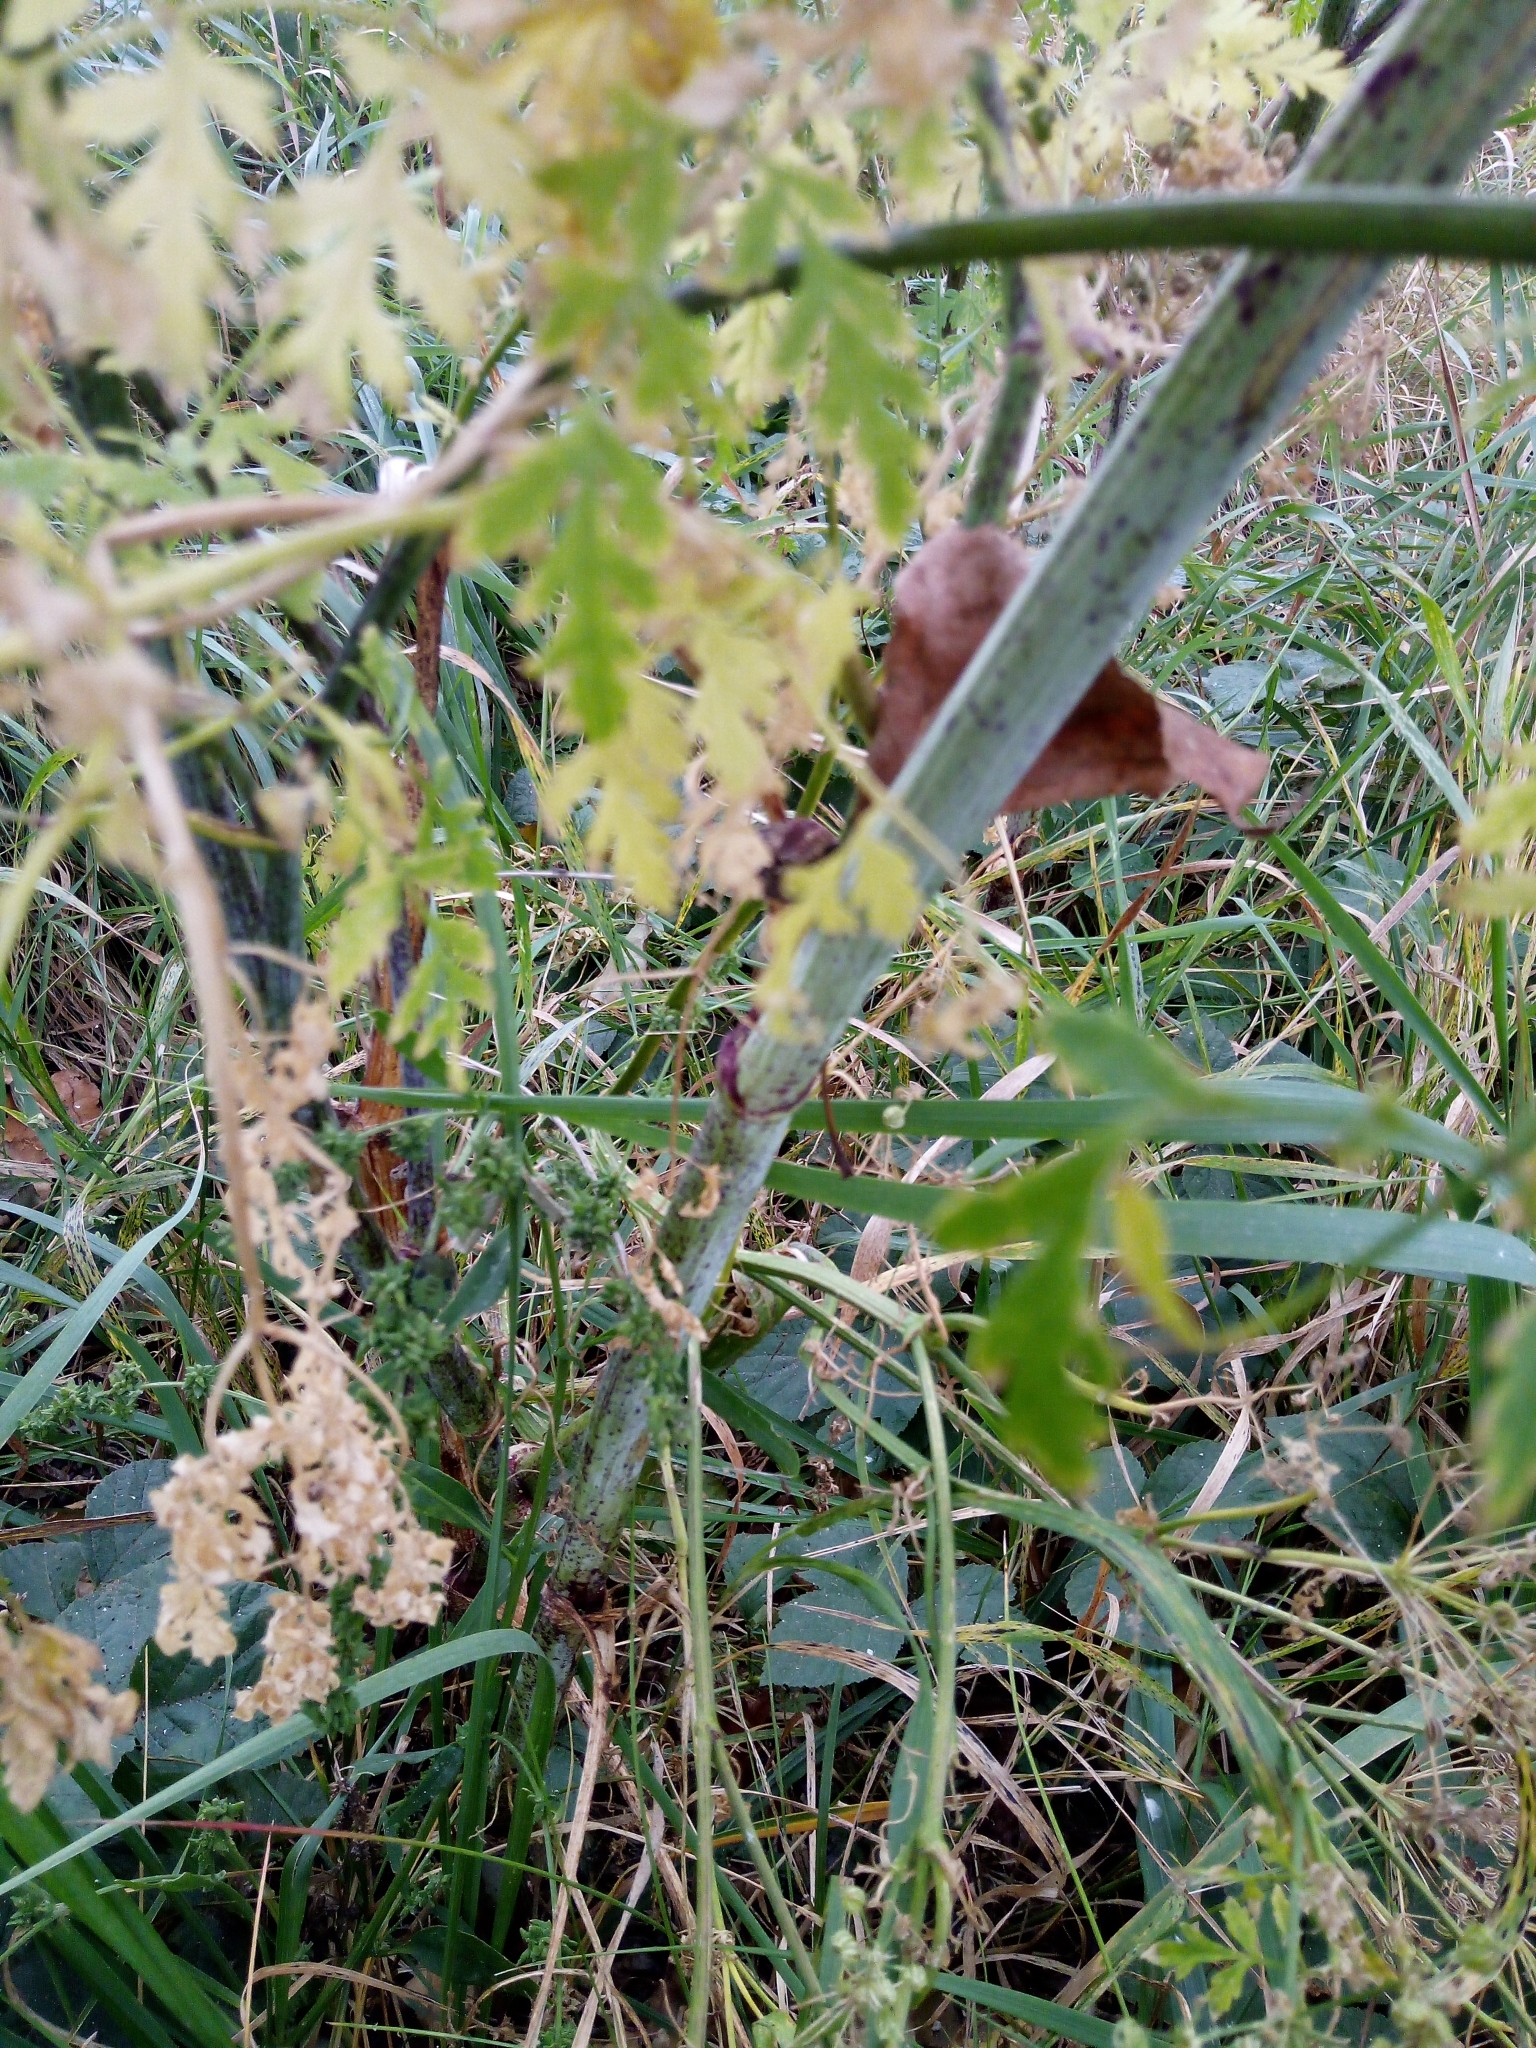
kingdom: Plantae
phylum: Tracheophyta
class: Magnoliopsida
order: Apiales
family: Apiaceae
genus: Conium
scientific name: Conium maculatum
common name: Hemlock
